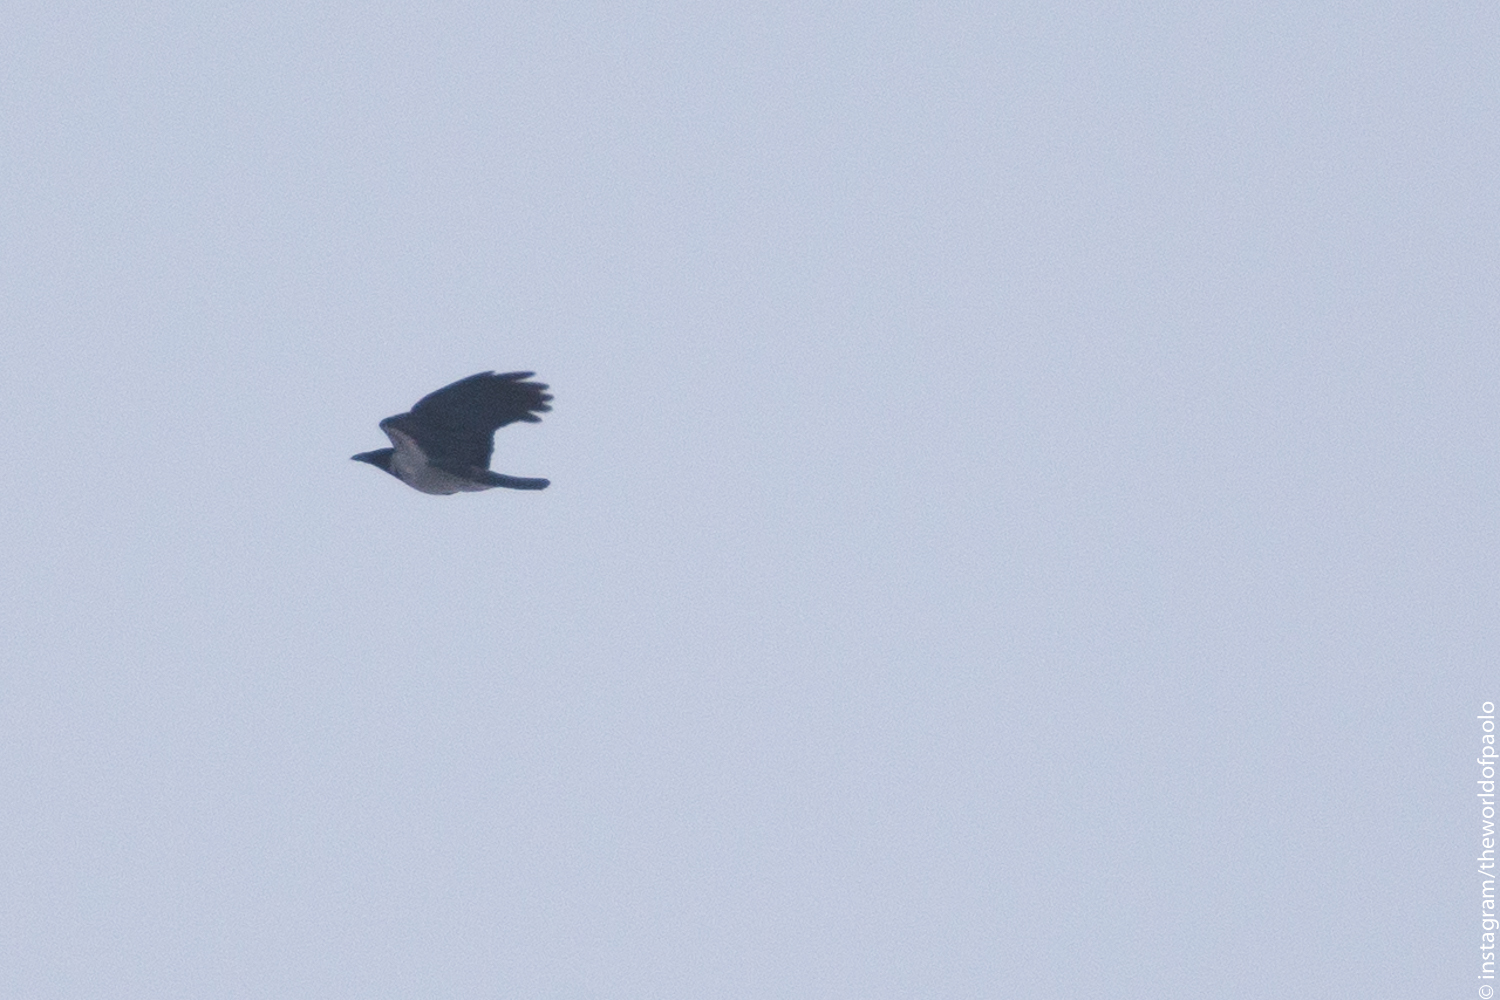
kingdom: Animalia
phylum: Chordata
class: Aves
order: Passeriformes
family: Corvidae
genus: Corvus
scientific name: Corvus cornix
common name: Hooded crow
